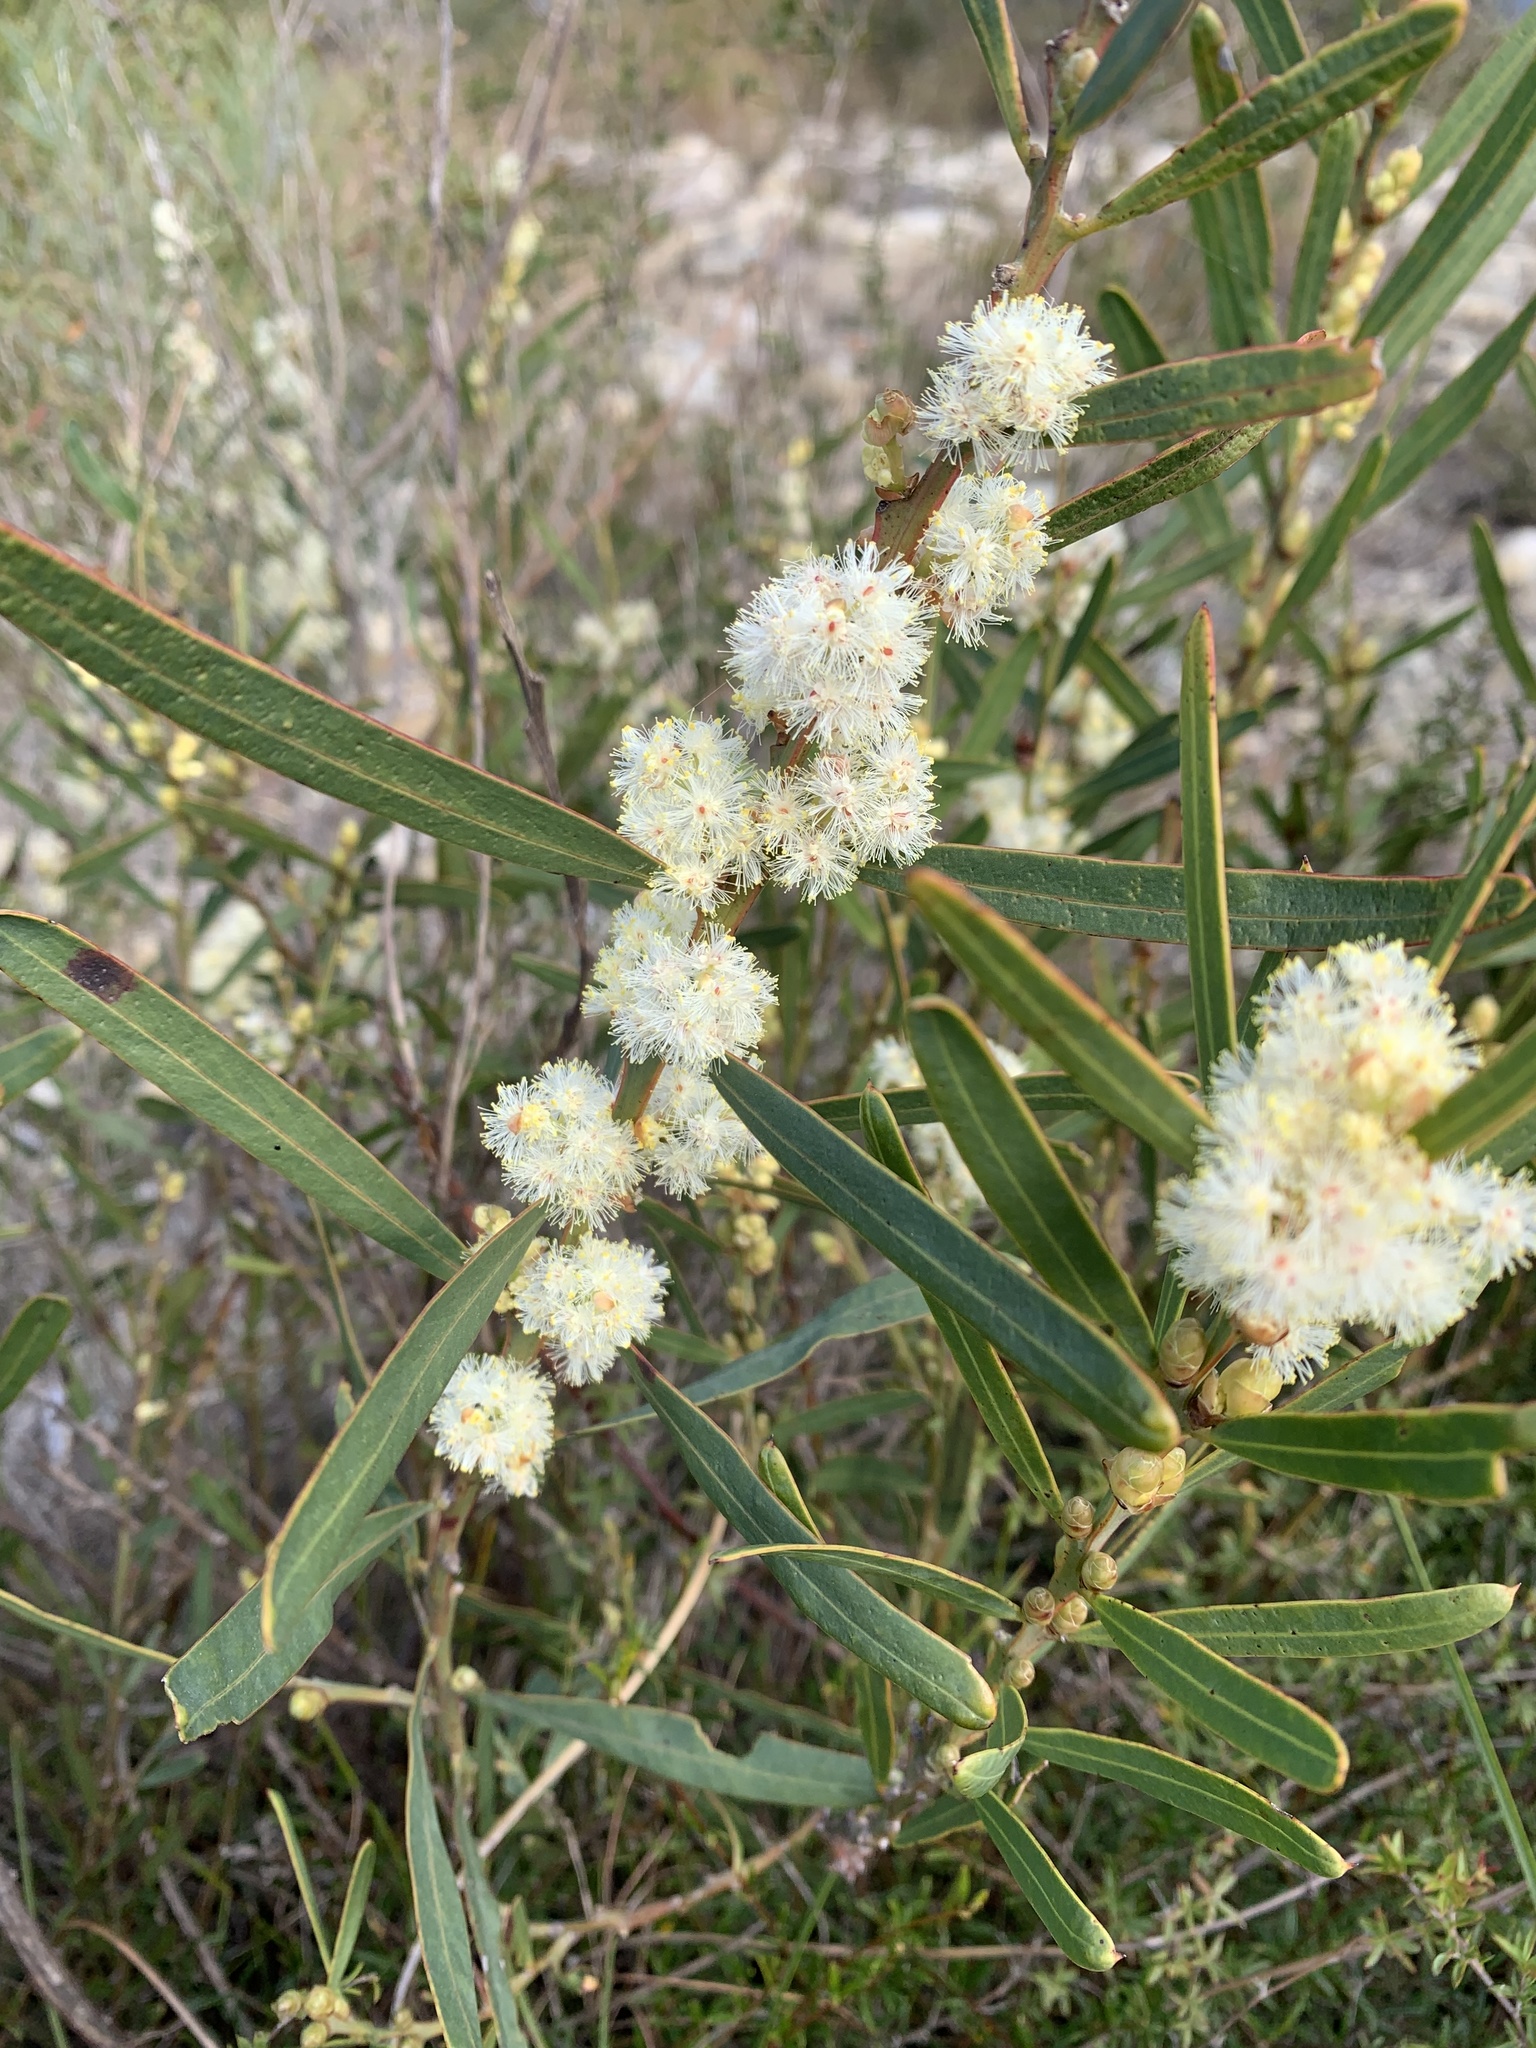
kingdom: Plantae
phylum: Tracheophyta
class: Magnoliopsida
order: Fabales
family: Fabaceae
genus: Acacia
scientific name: Acacia suaveolens
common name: Sweet acacia
